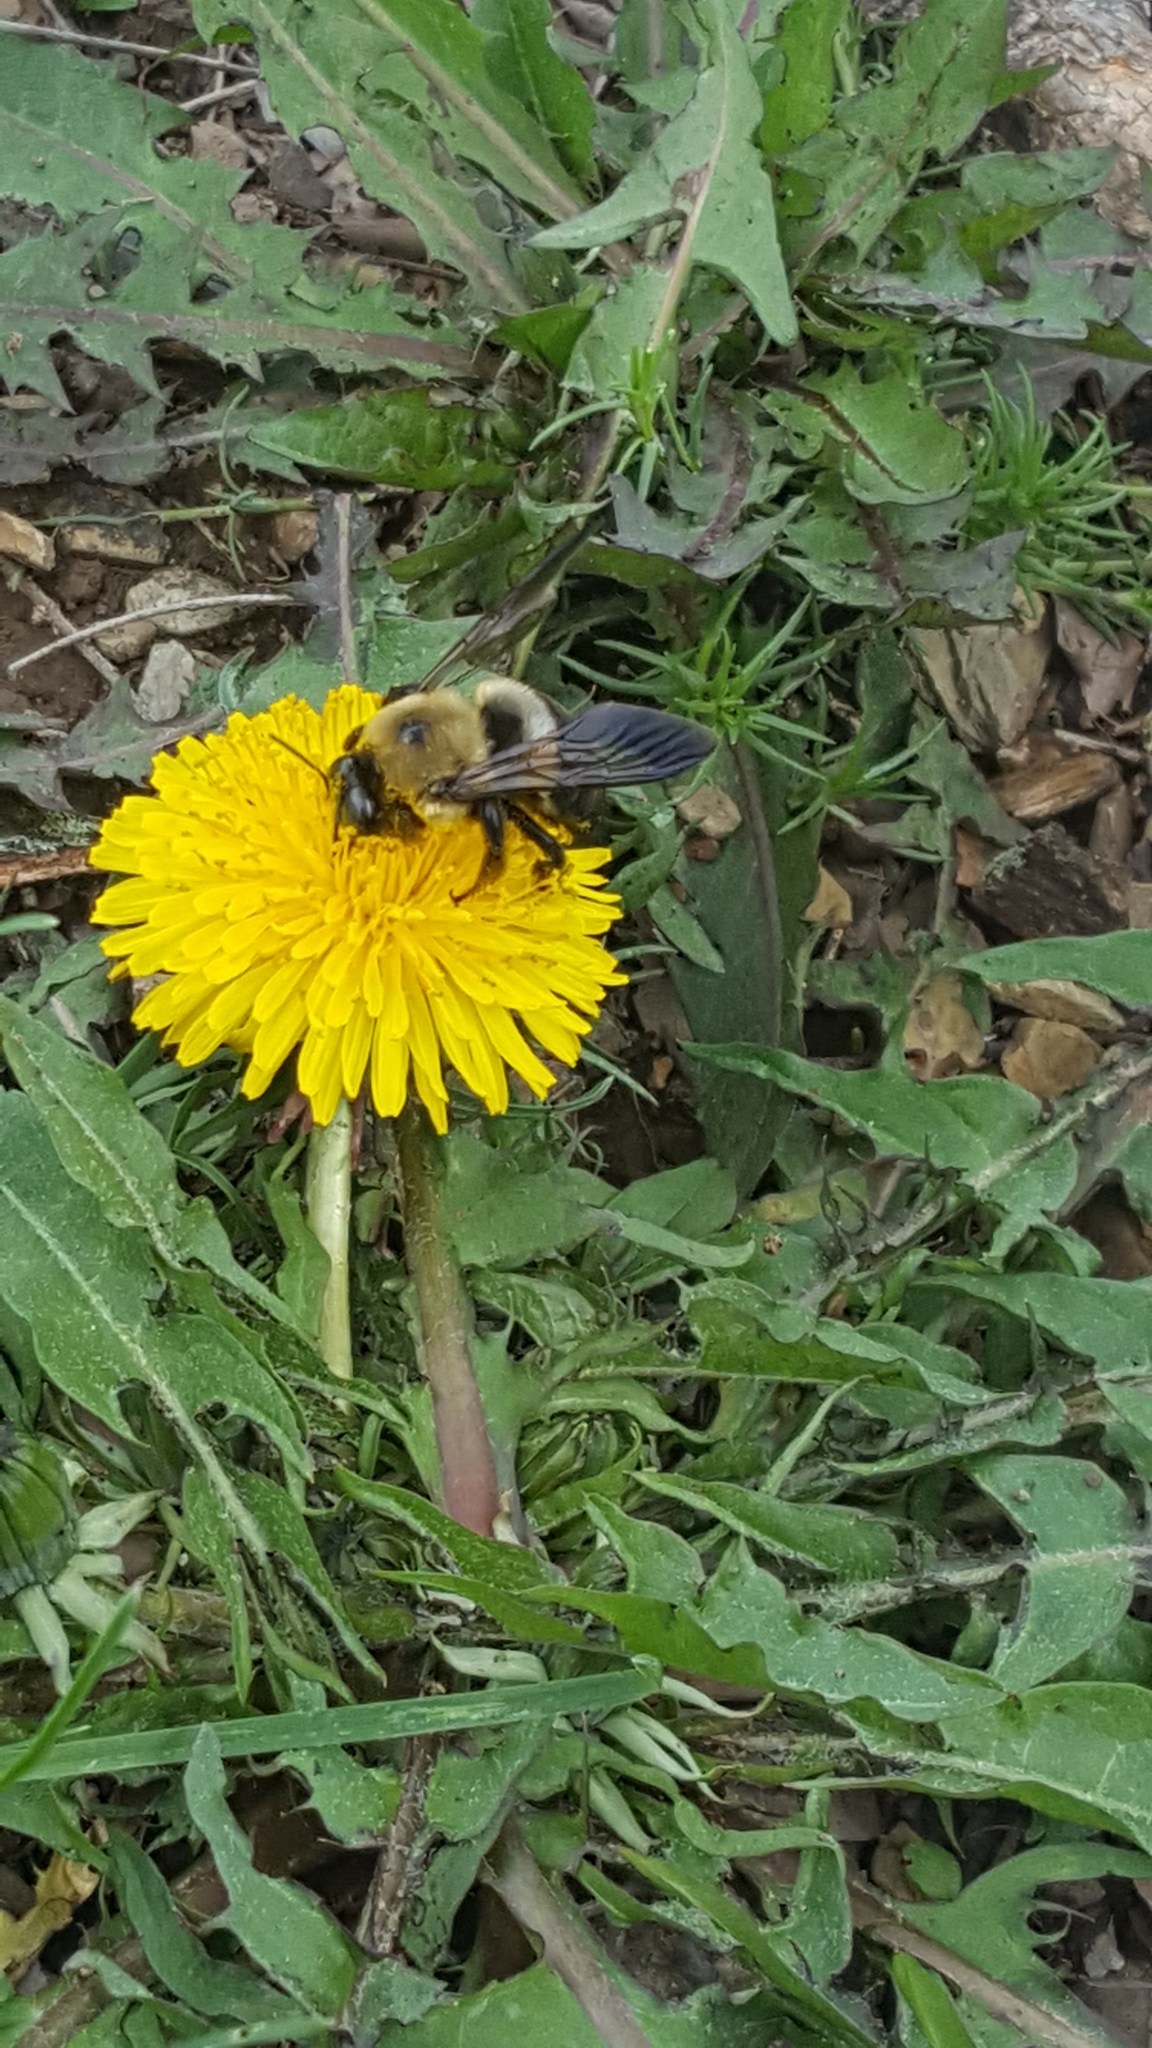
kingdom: Animalia
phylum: Arthropoda
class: Insecta
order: Hymenoptera
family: Apidae
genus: Xylocopa
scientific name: Xylocopa virginica
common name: Carpenter bee
